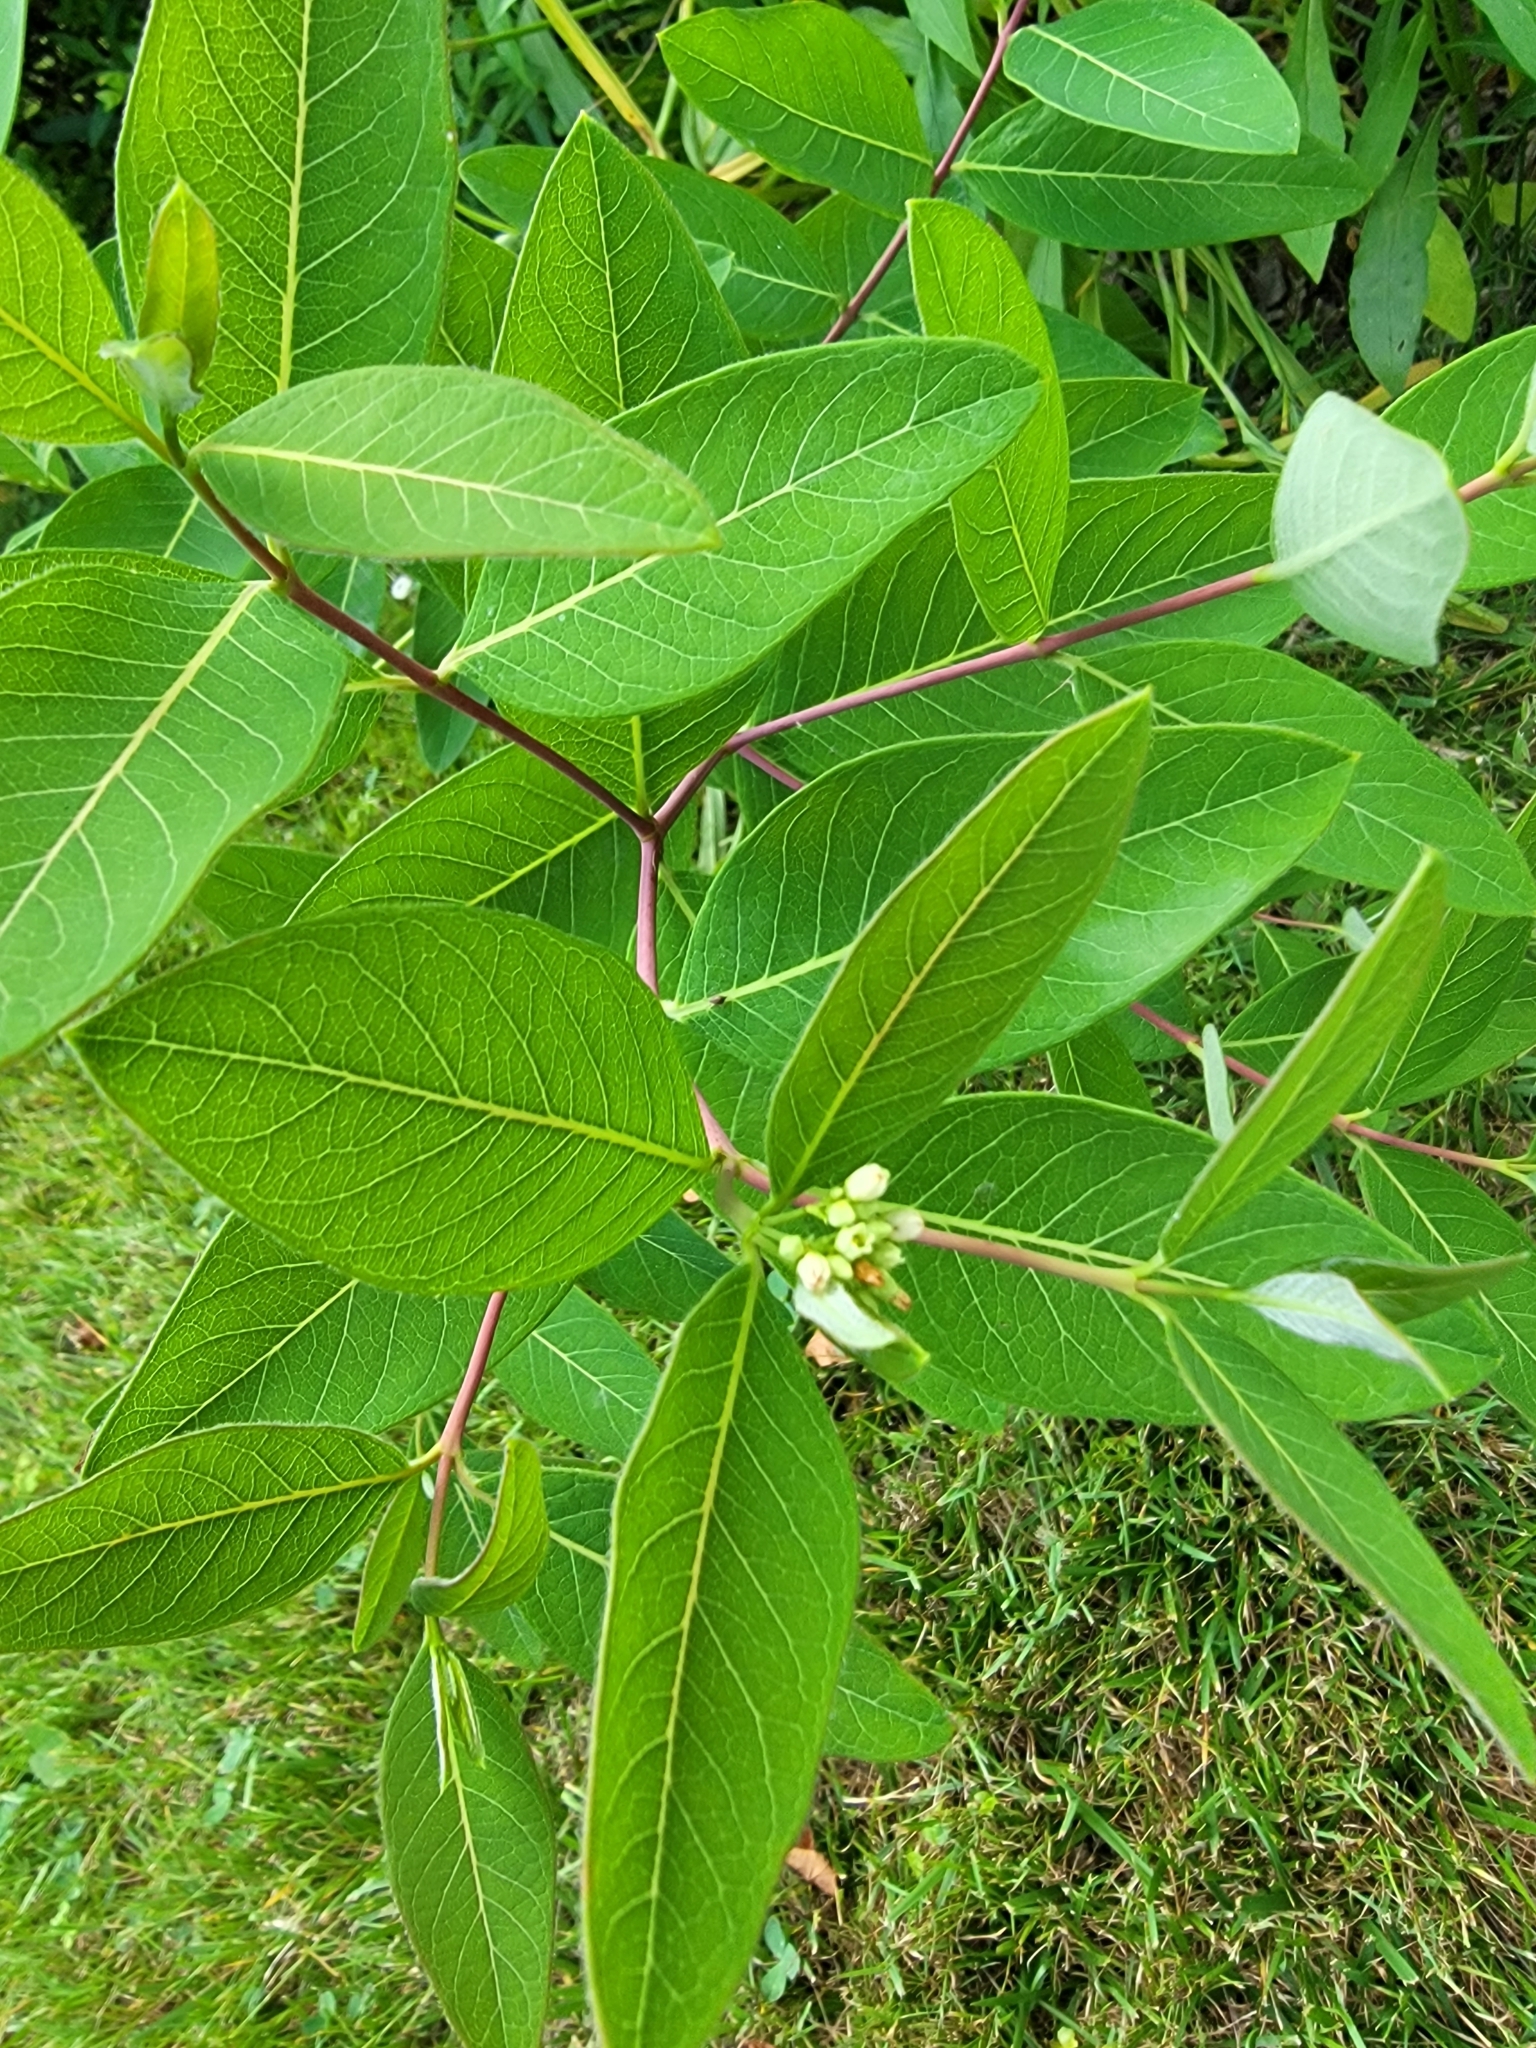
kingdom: Plantae
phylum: Tracheophyta
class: Magnoliopsida
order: Gentianales
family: Apocynaceae
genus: Apocynum
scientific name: Apocynum cannabinum
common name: Hemp dogbane
